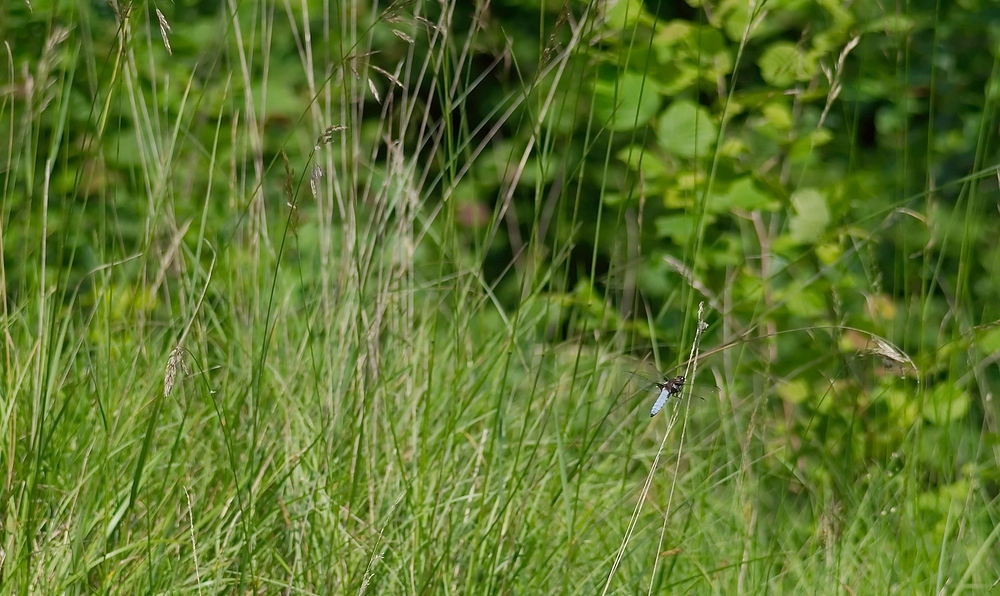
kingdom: Animalia
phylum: Arthropoda
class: Insecta
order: Odonata
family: Libellulidae
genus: Libellula
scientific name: Libellula depressa
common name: Broad-bodied chaser
